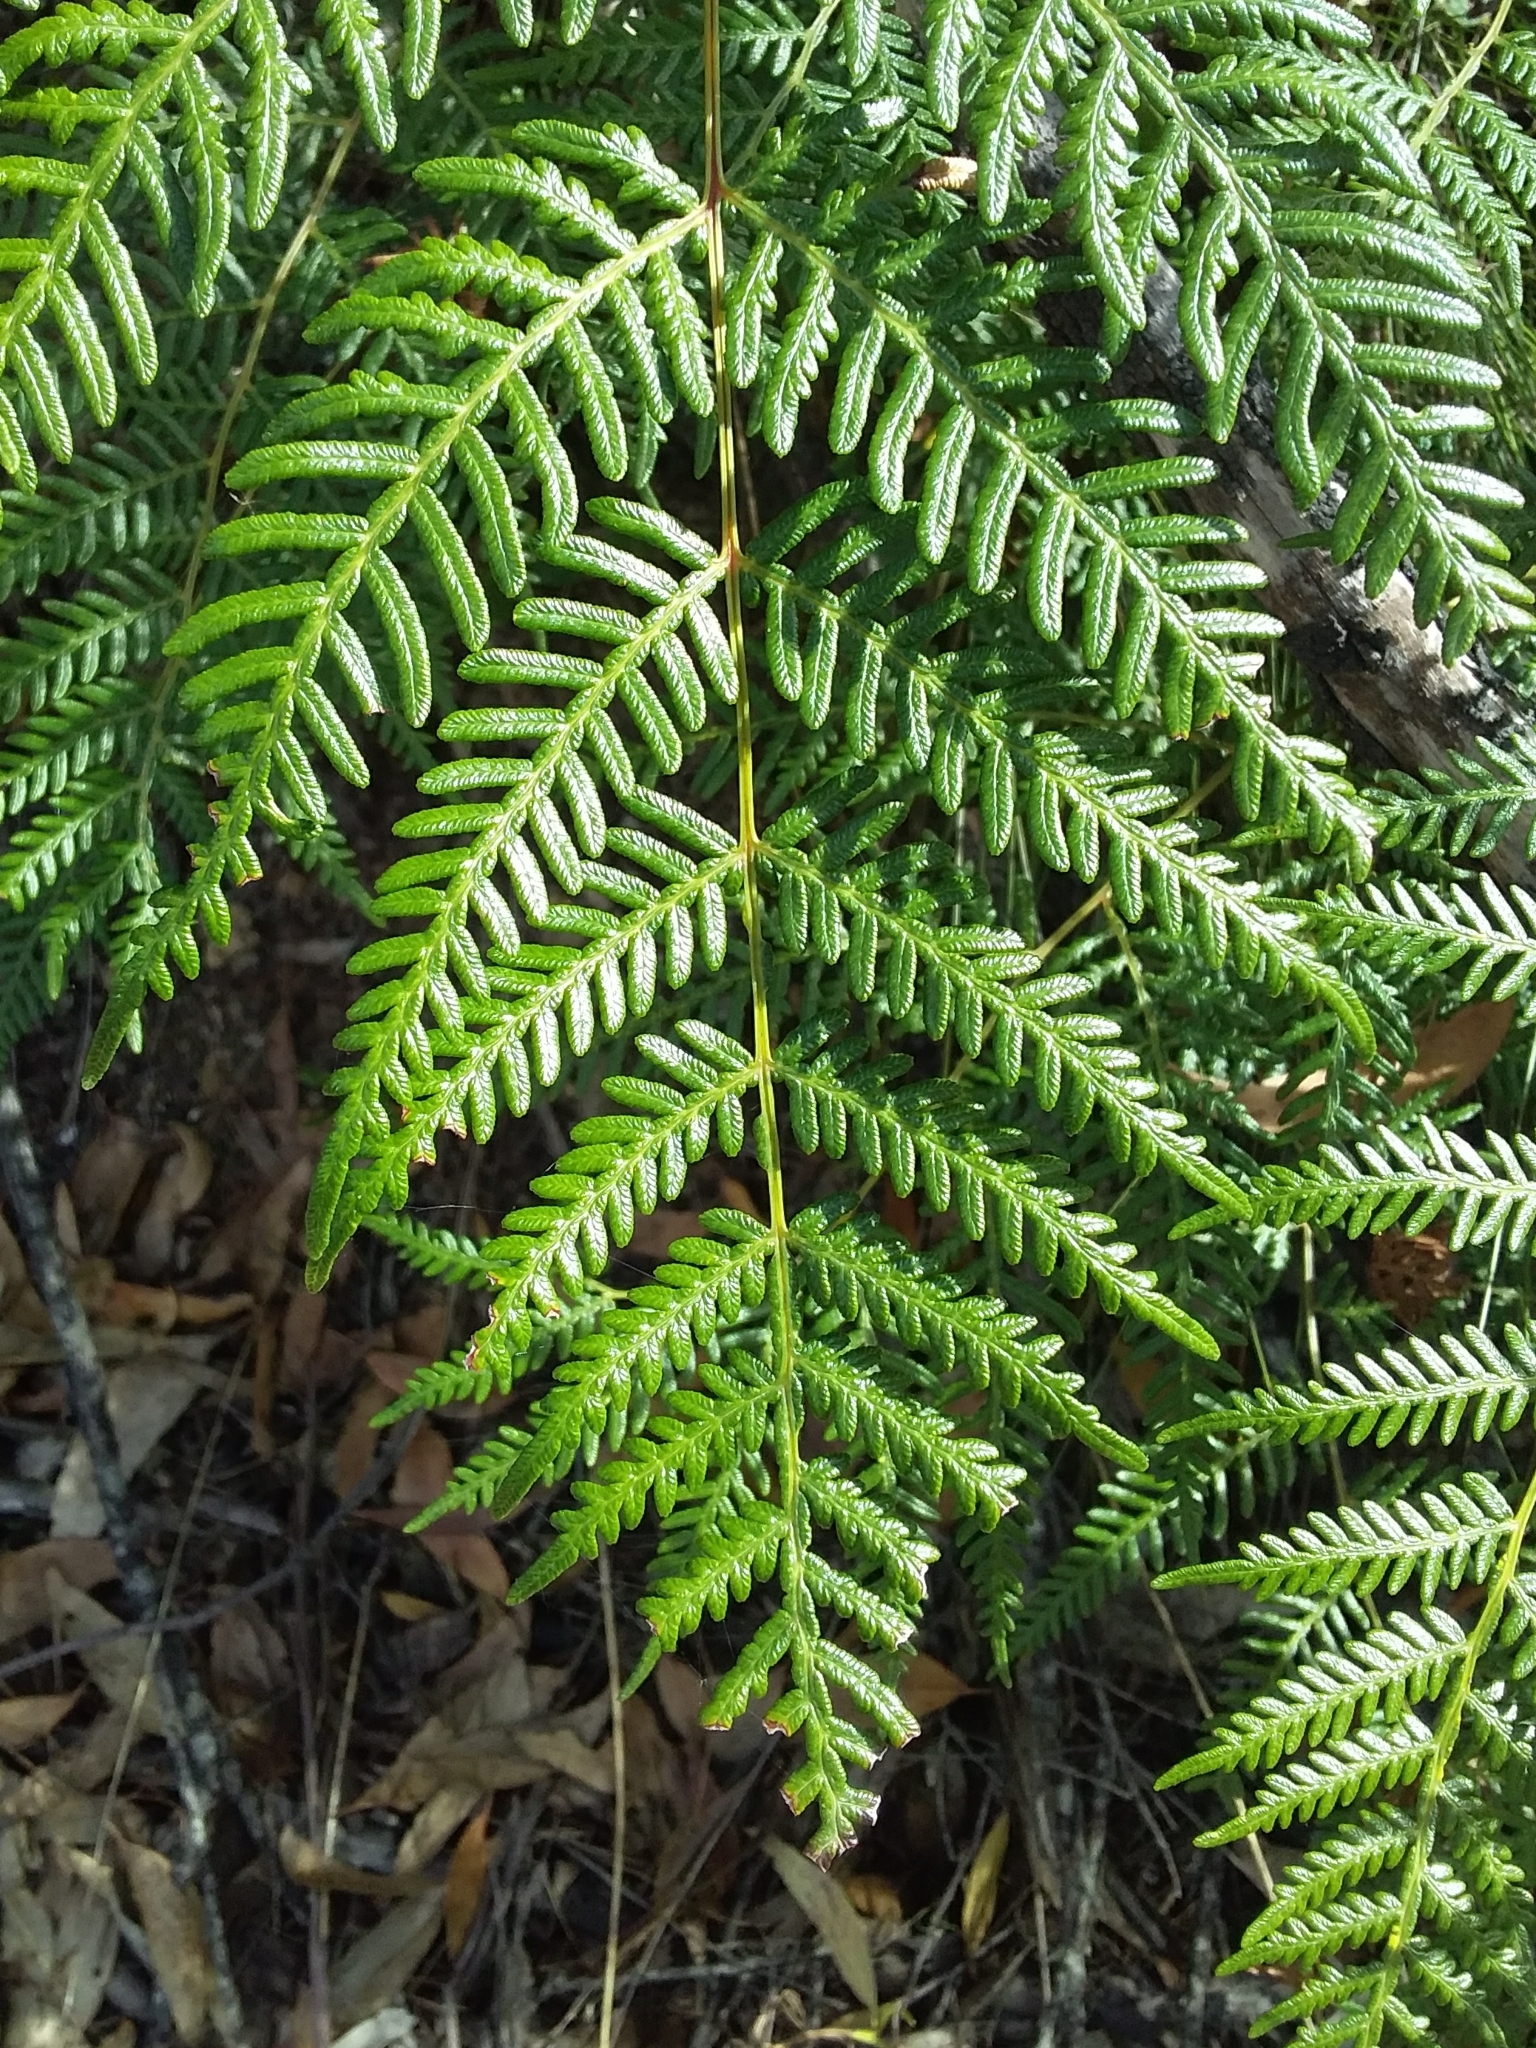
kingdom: Plantae
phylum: Tracheophyta
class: Polypodiopsida
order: Polypodiales
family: Dennstaedtiaceae
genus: Pteridium
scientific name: Pteridium esculentum
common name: Bracken fern
